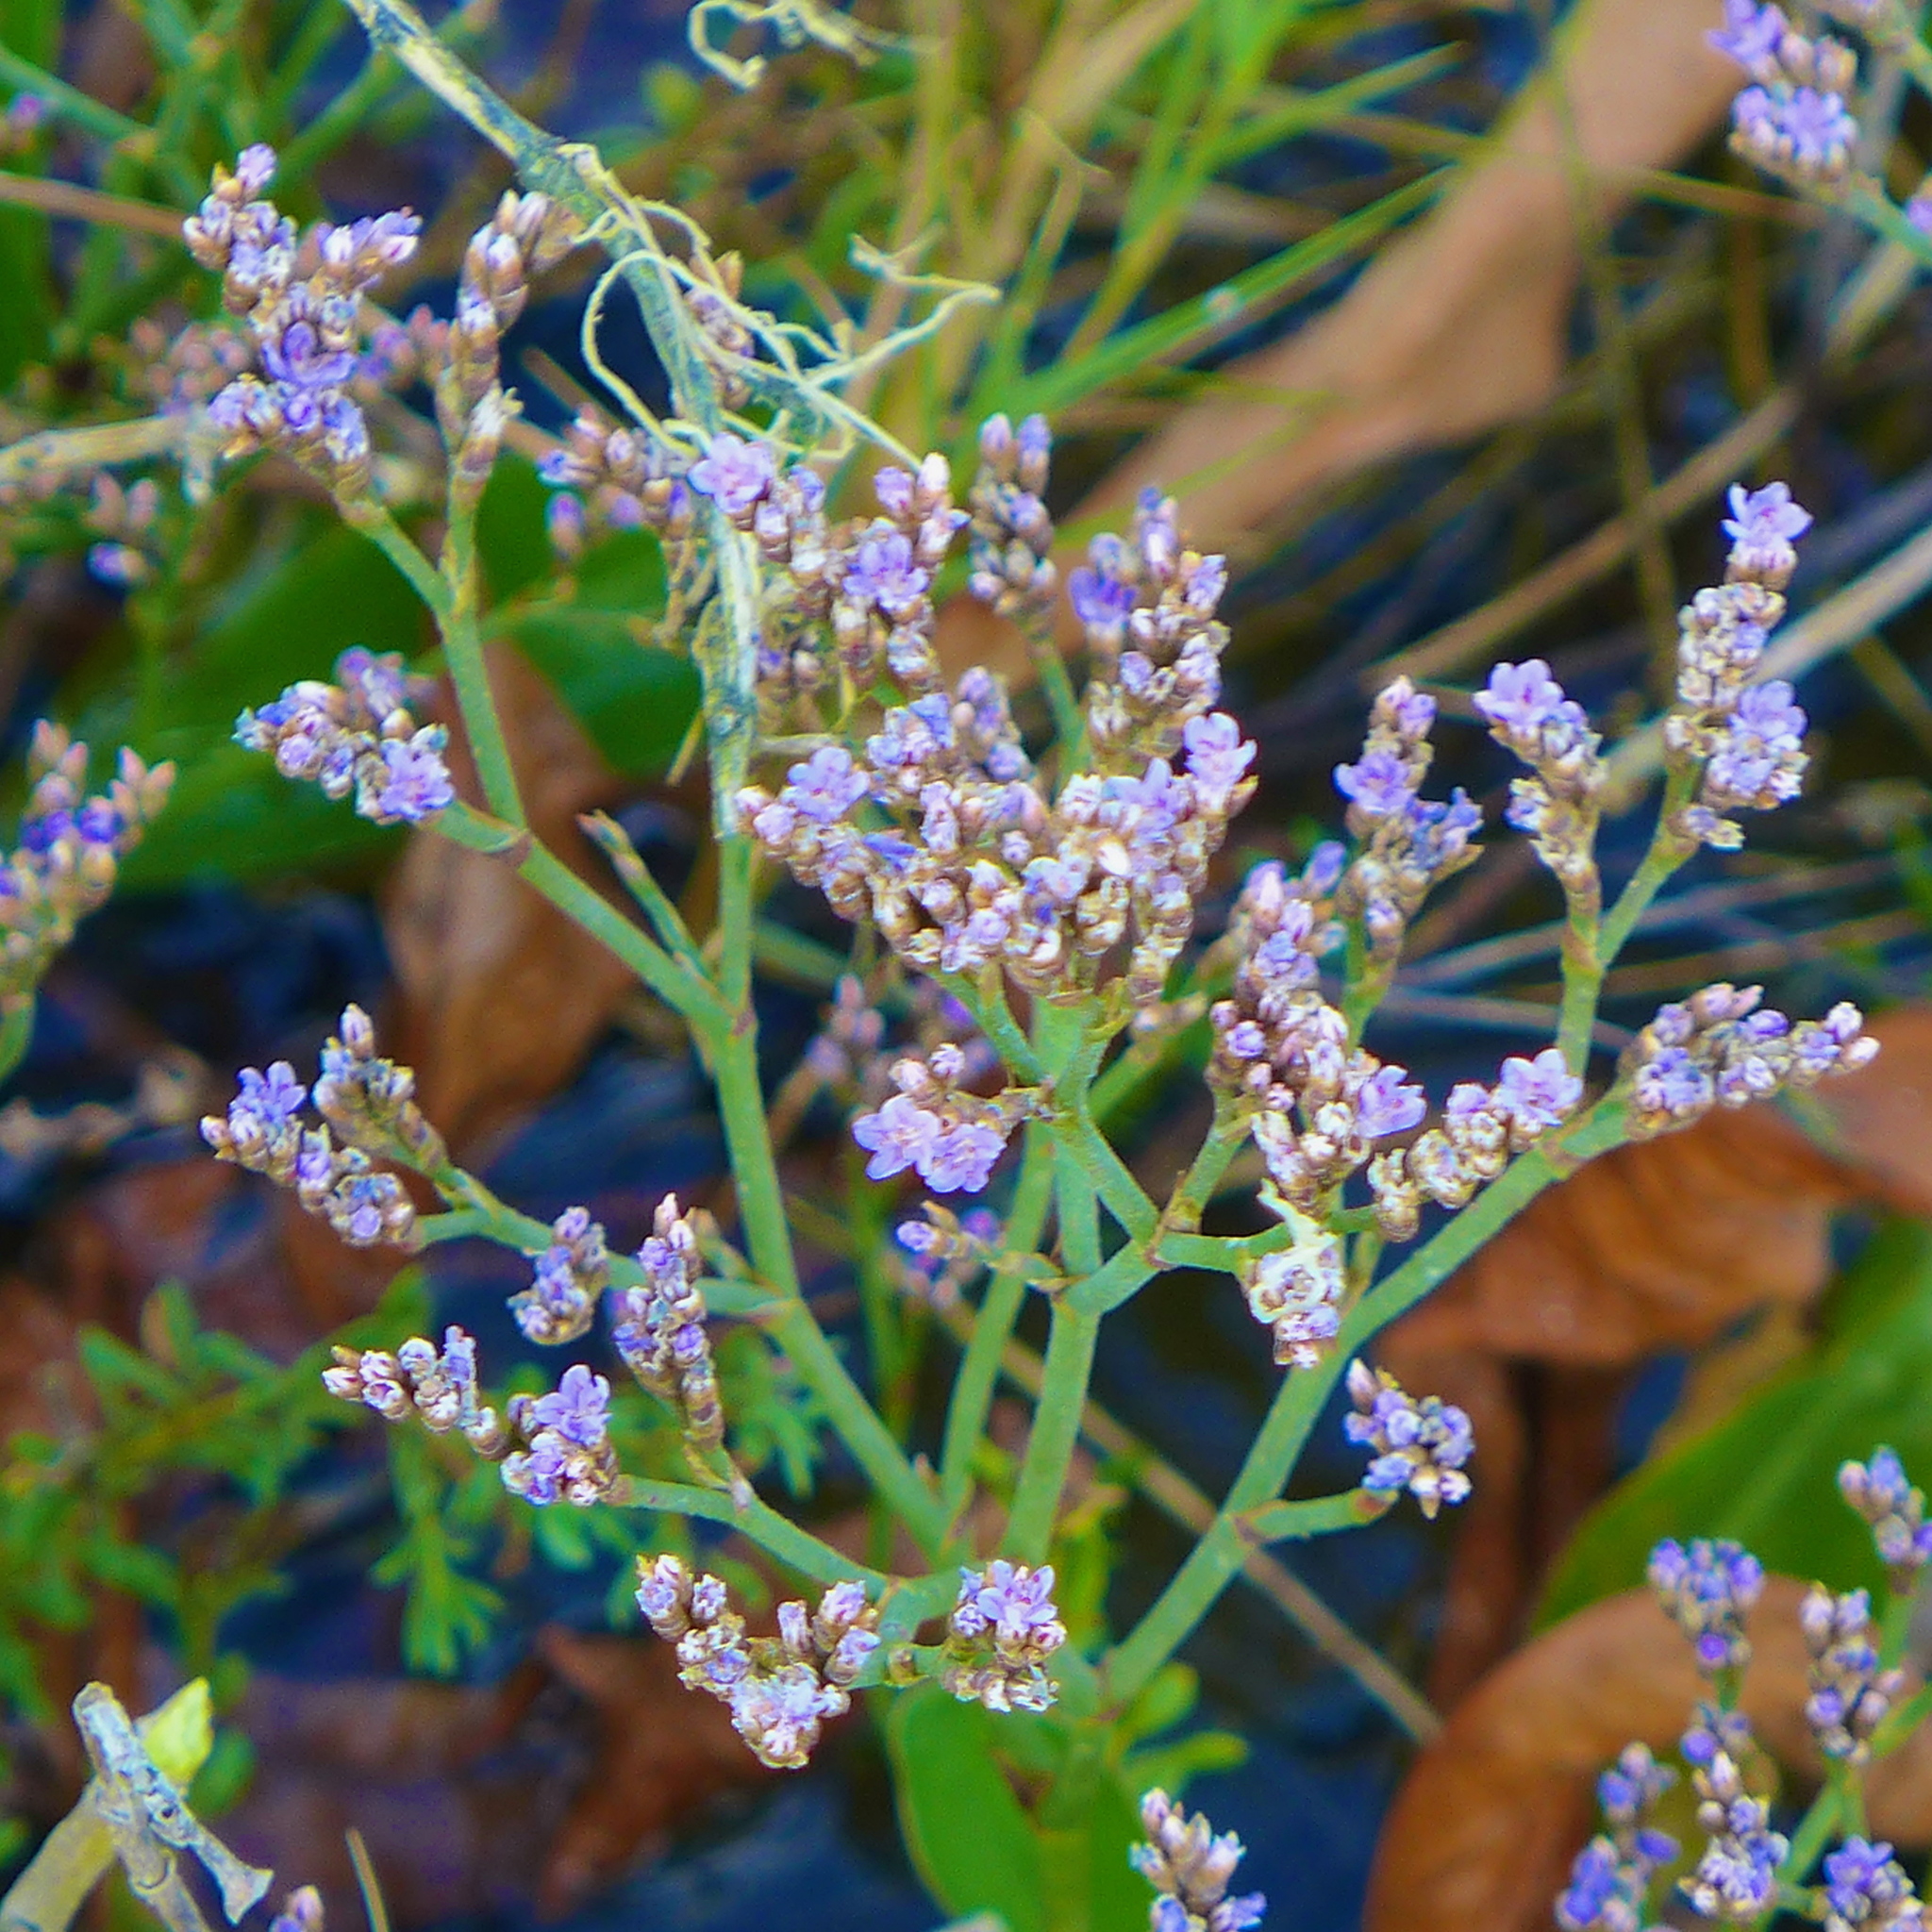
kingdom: Plantae
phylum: Tracheophyta
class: Magnoliopsida
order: Caryophyllales
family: Plumbaginaceae
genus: Limonium
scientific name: Limonium californicum
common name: Marsh-rosemary
